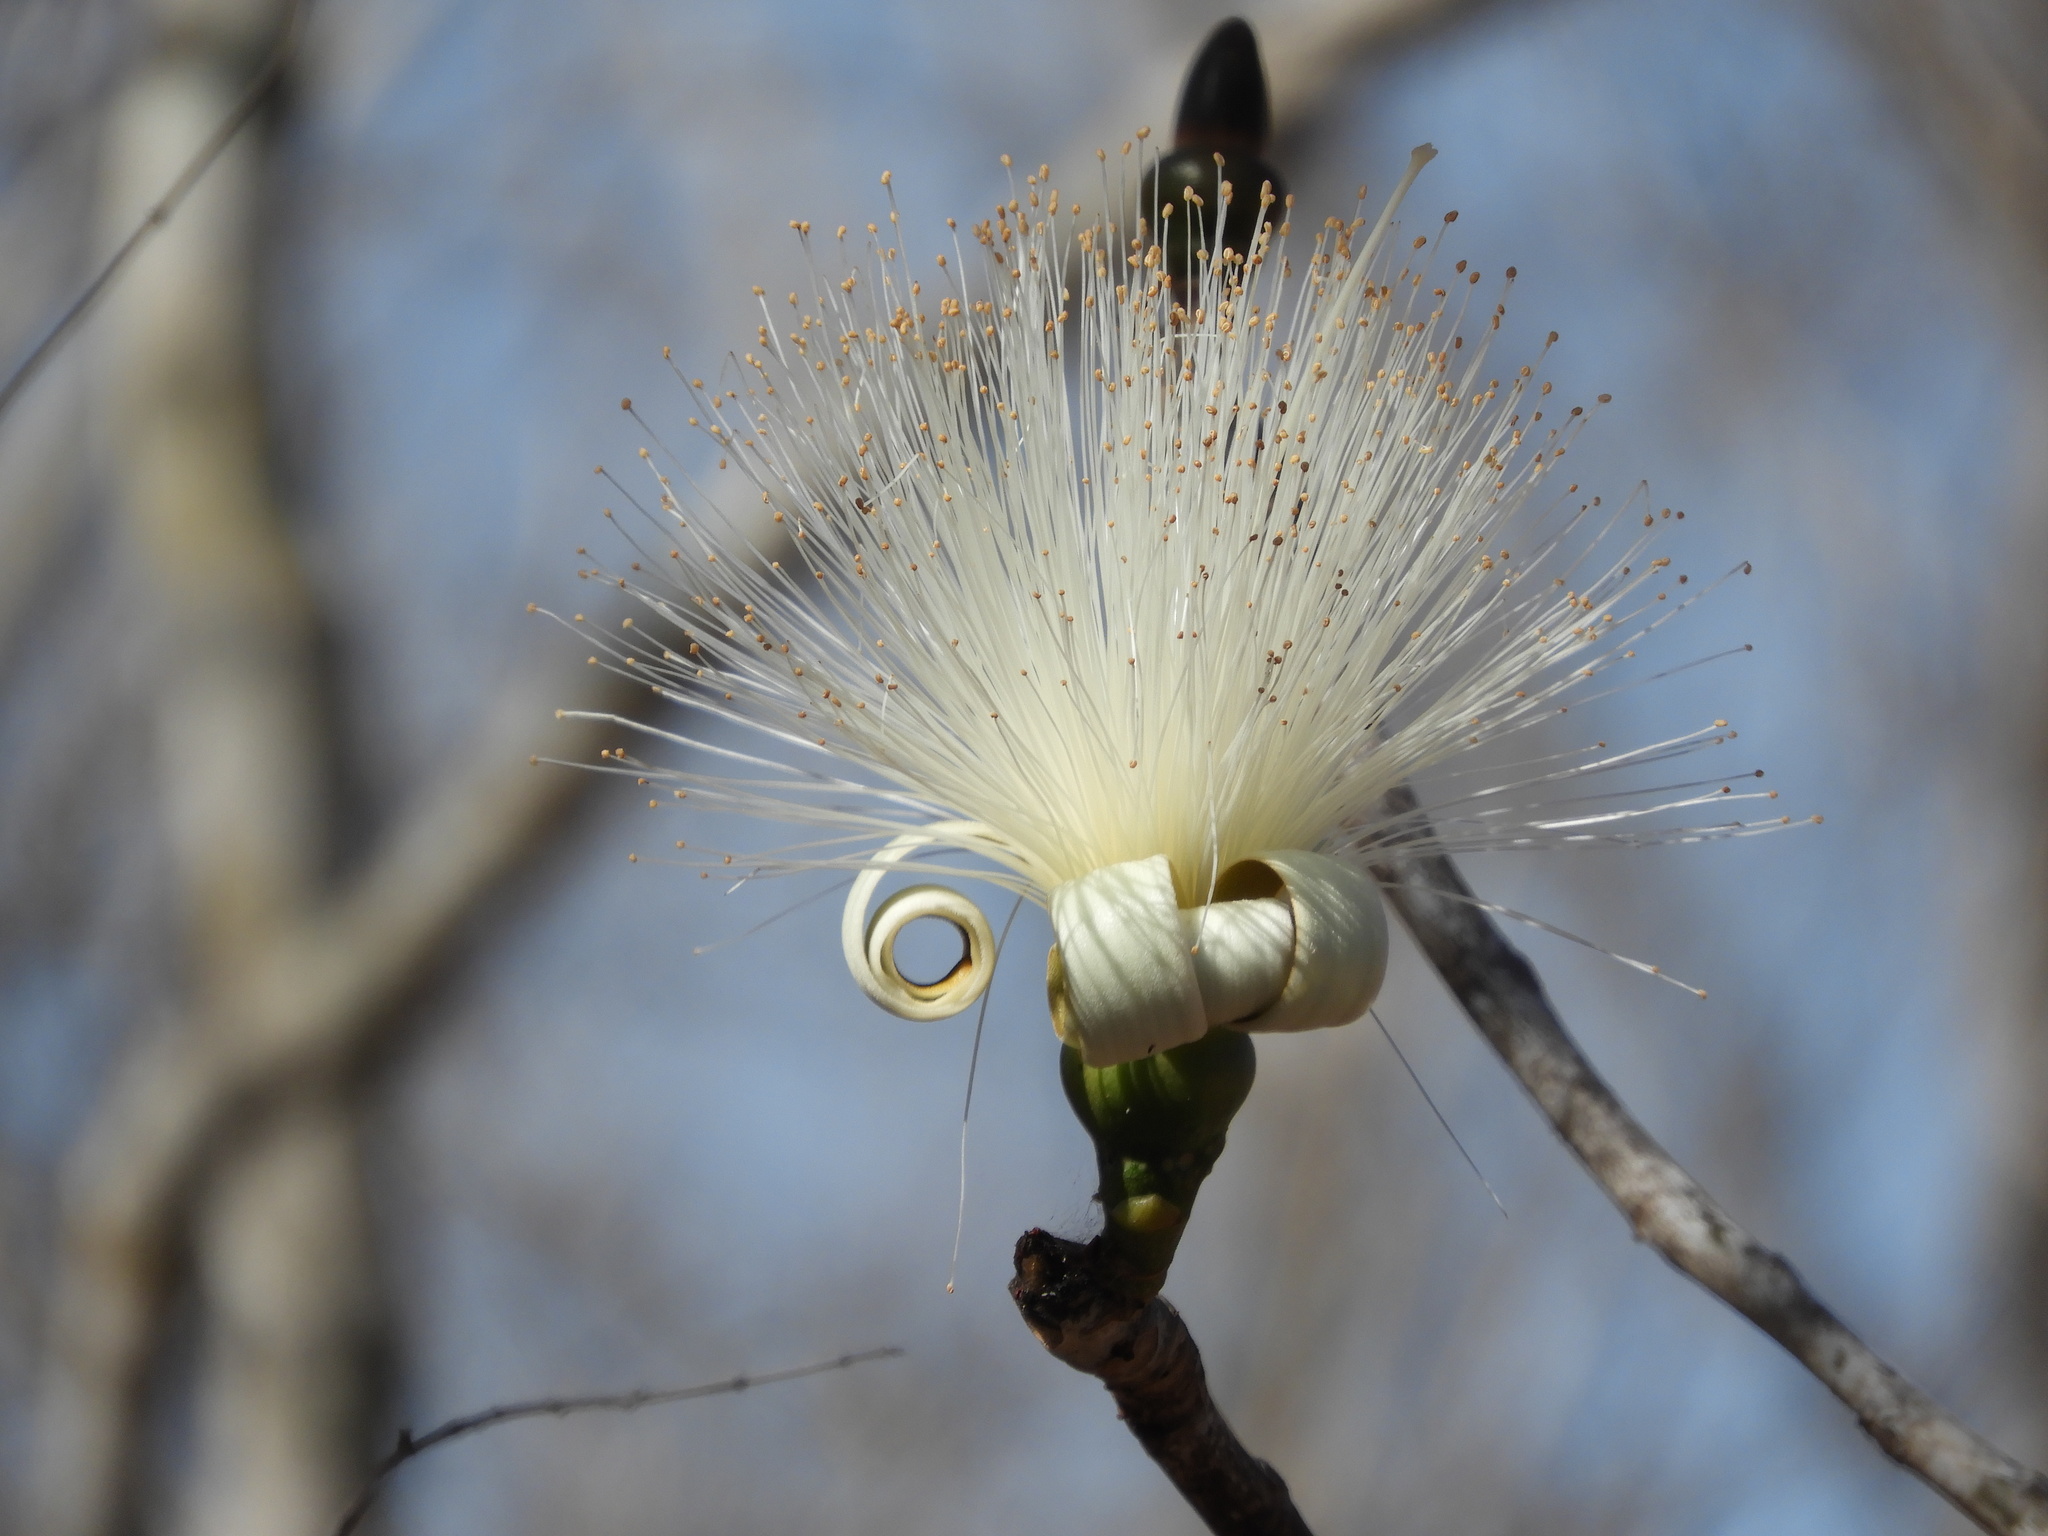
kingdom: Plantae
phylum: Tracheophyta
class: Magnoliopsida
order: Malvales
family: Malvaceae
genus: Pseudobombax
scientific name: Pseudobombax ellipticum
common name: Shaving-brush-tree
